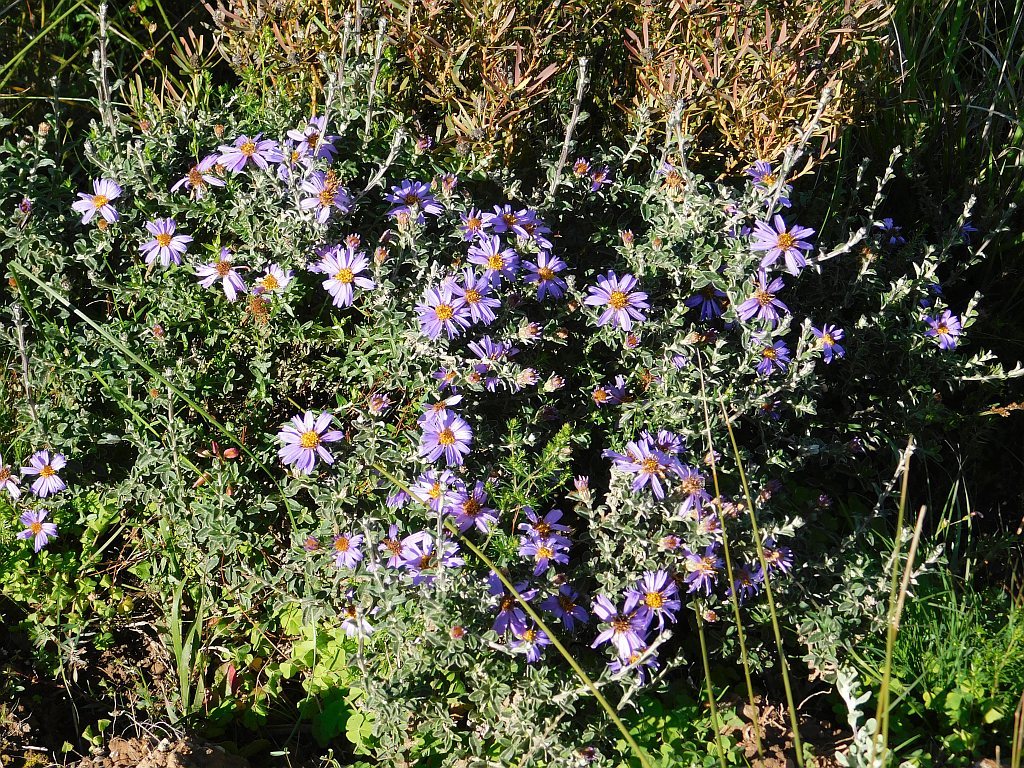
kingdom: Plantae
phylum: Tracheophyta
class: Magnoliopsida
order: Asterales
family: Asteraceae
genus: Printzia
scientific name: Printzia polifolia
